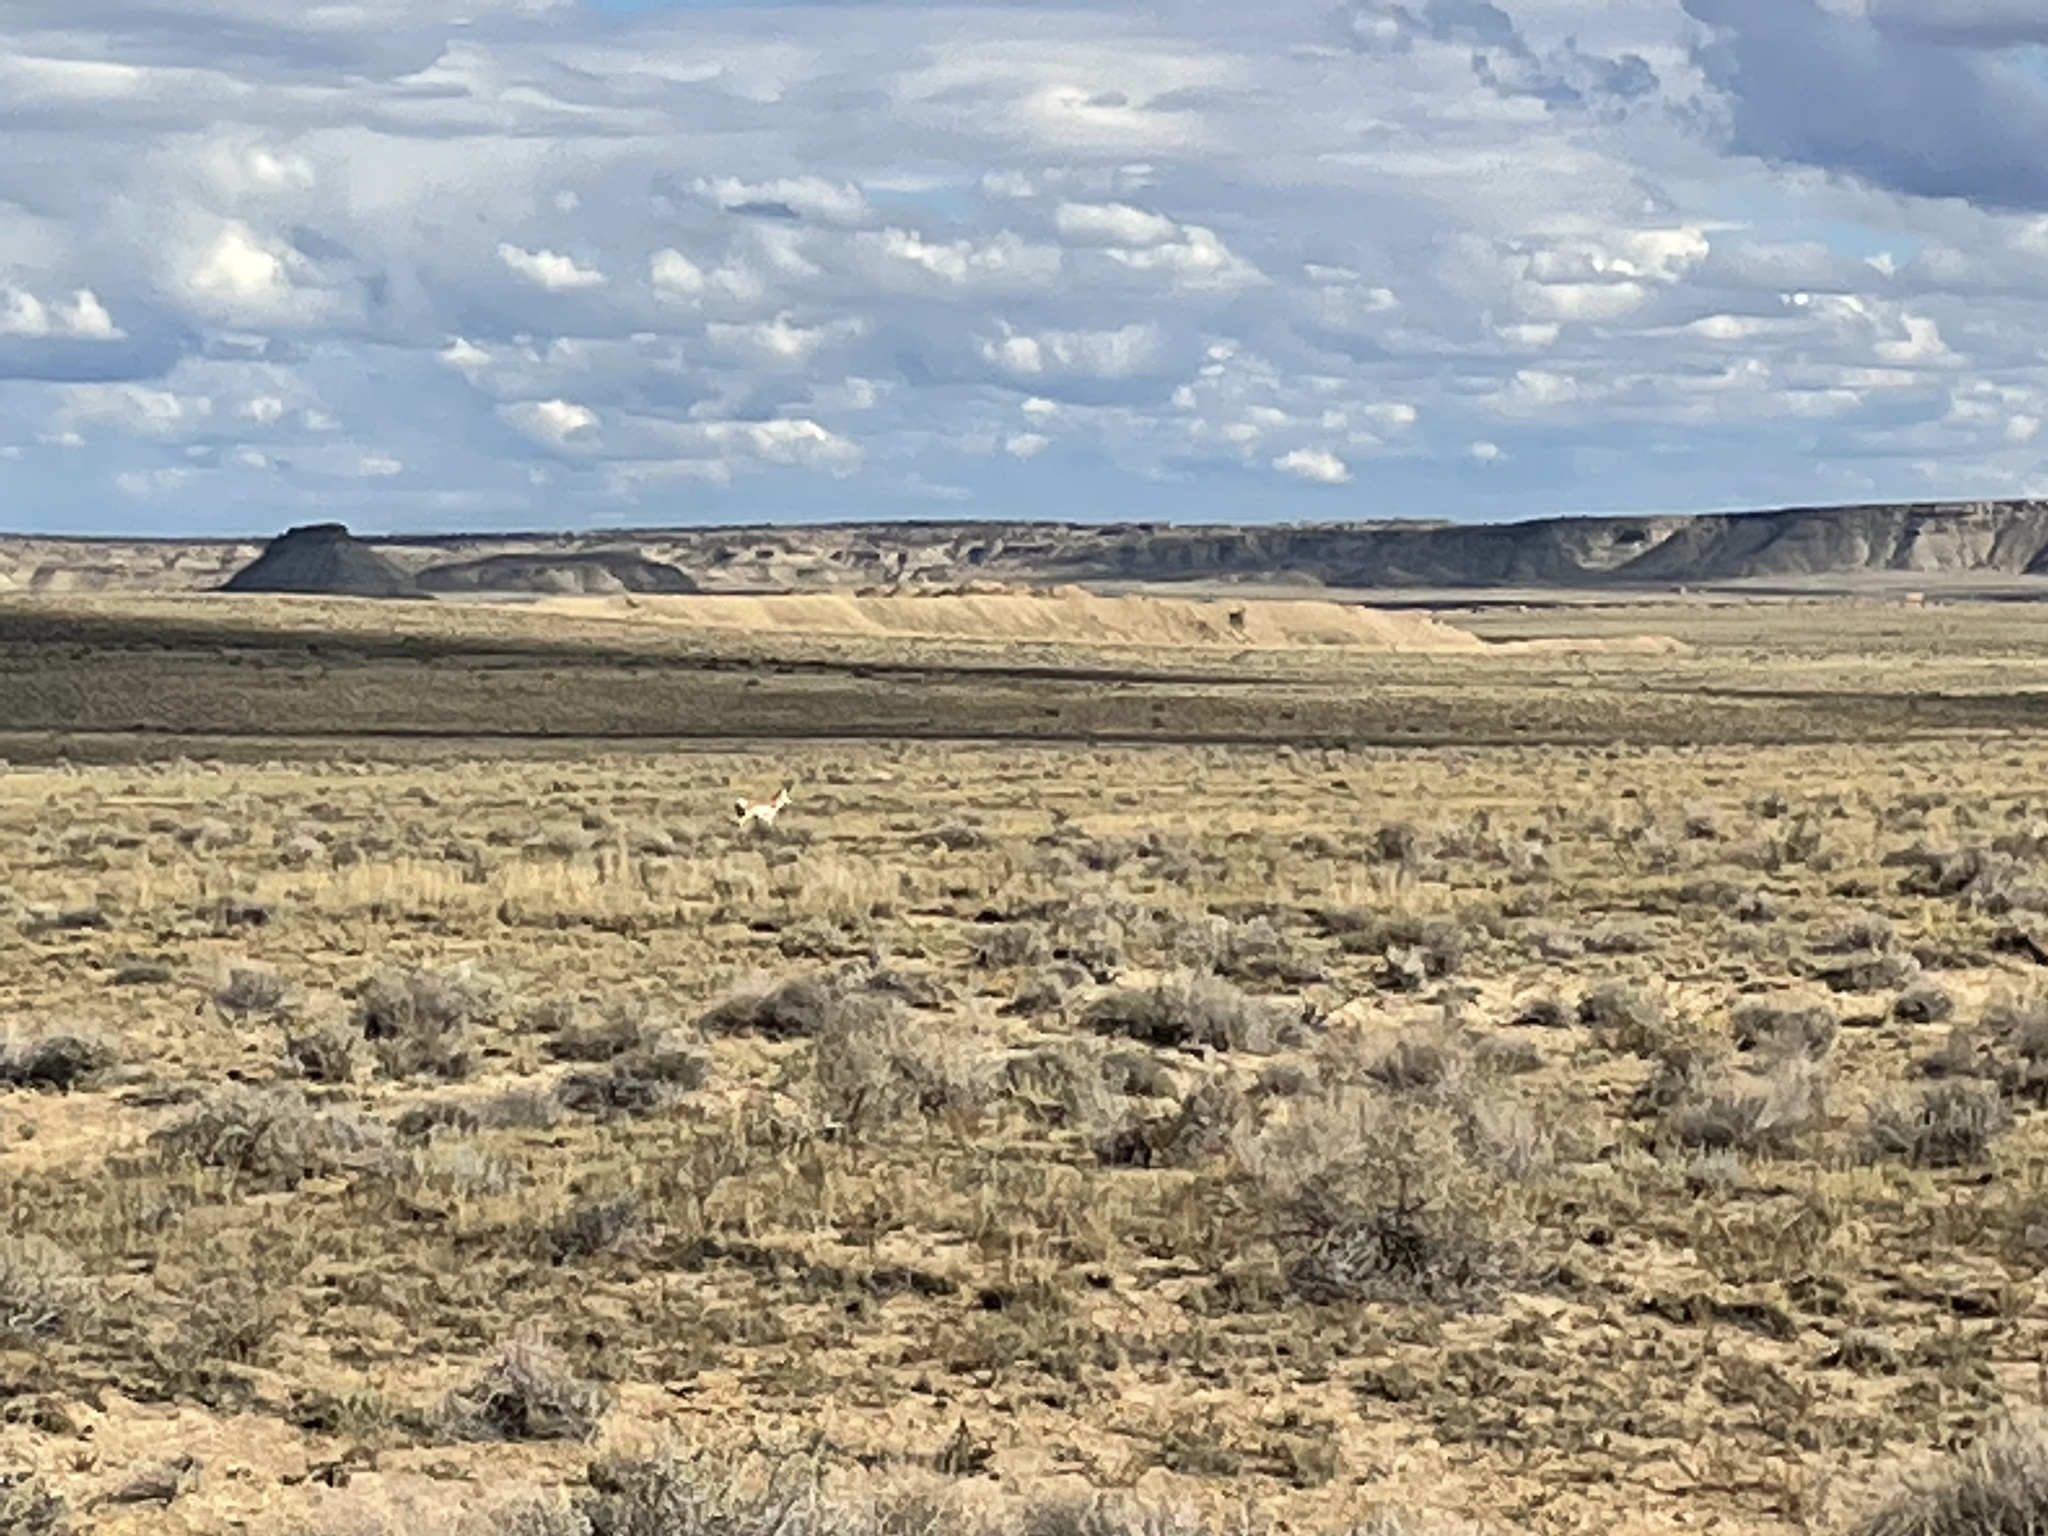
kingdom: Animalia
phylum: Chordata
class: Mammalia
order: Artiodactyla
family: Antilocapridae
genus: Antilocapra
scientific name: Antilocapra americana
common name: Pronghorn
